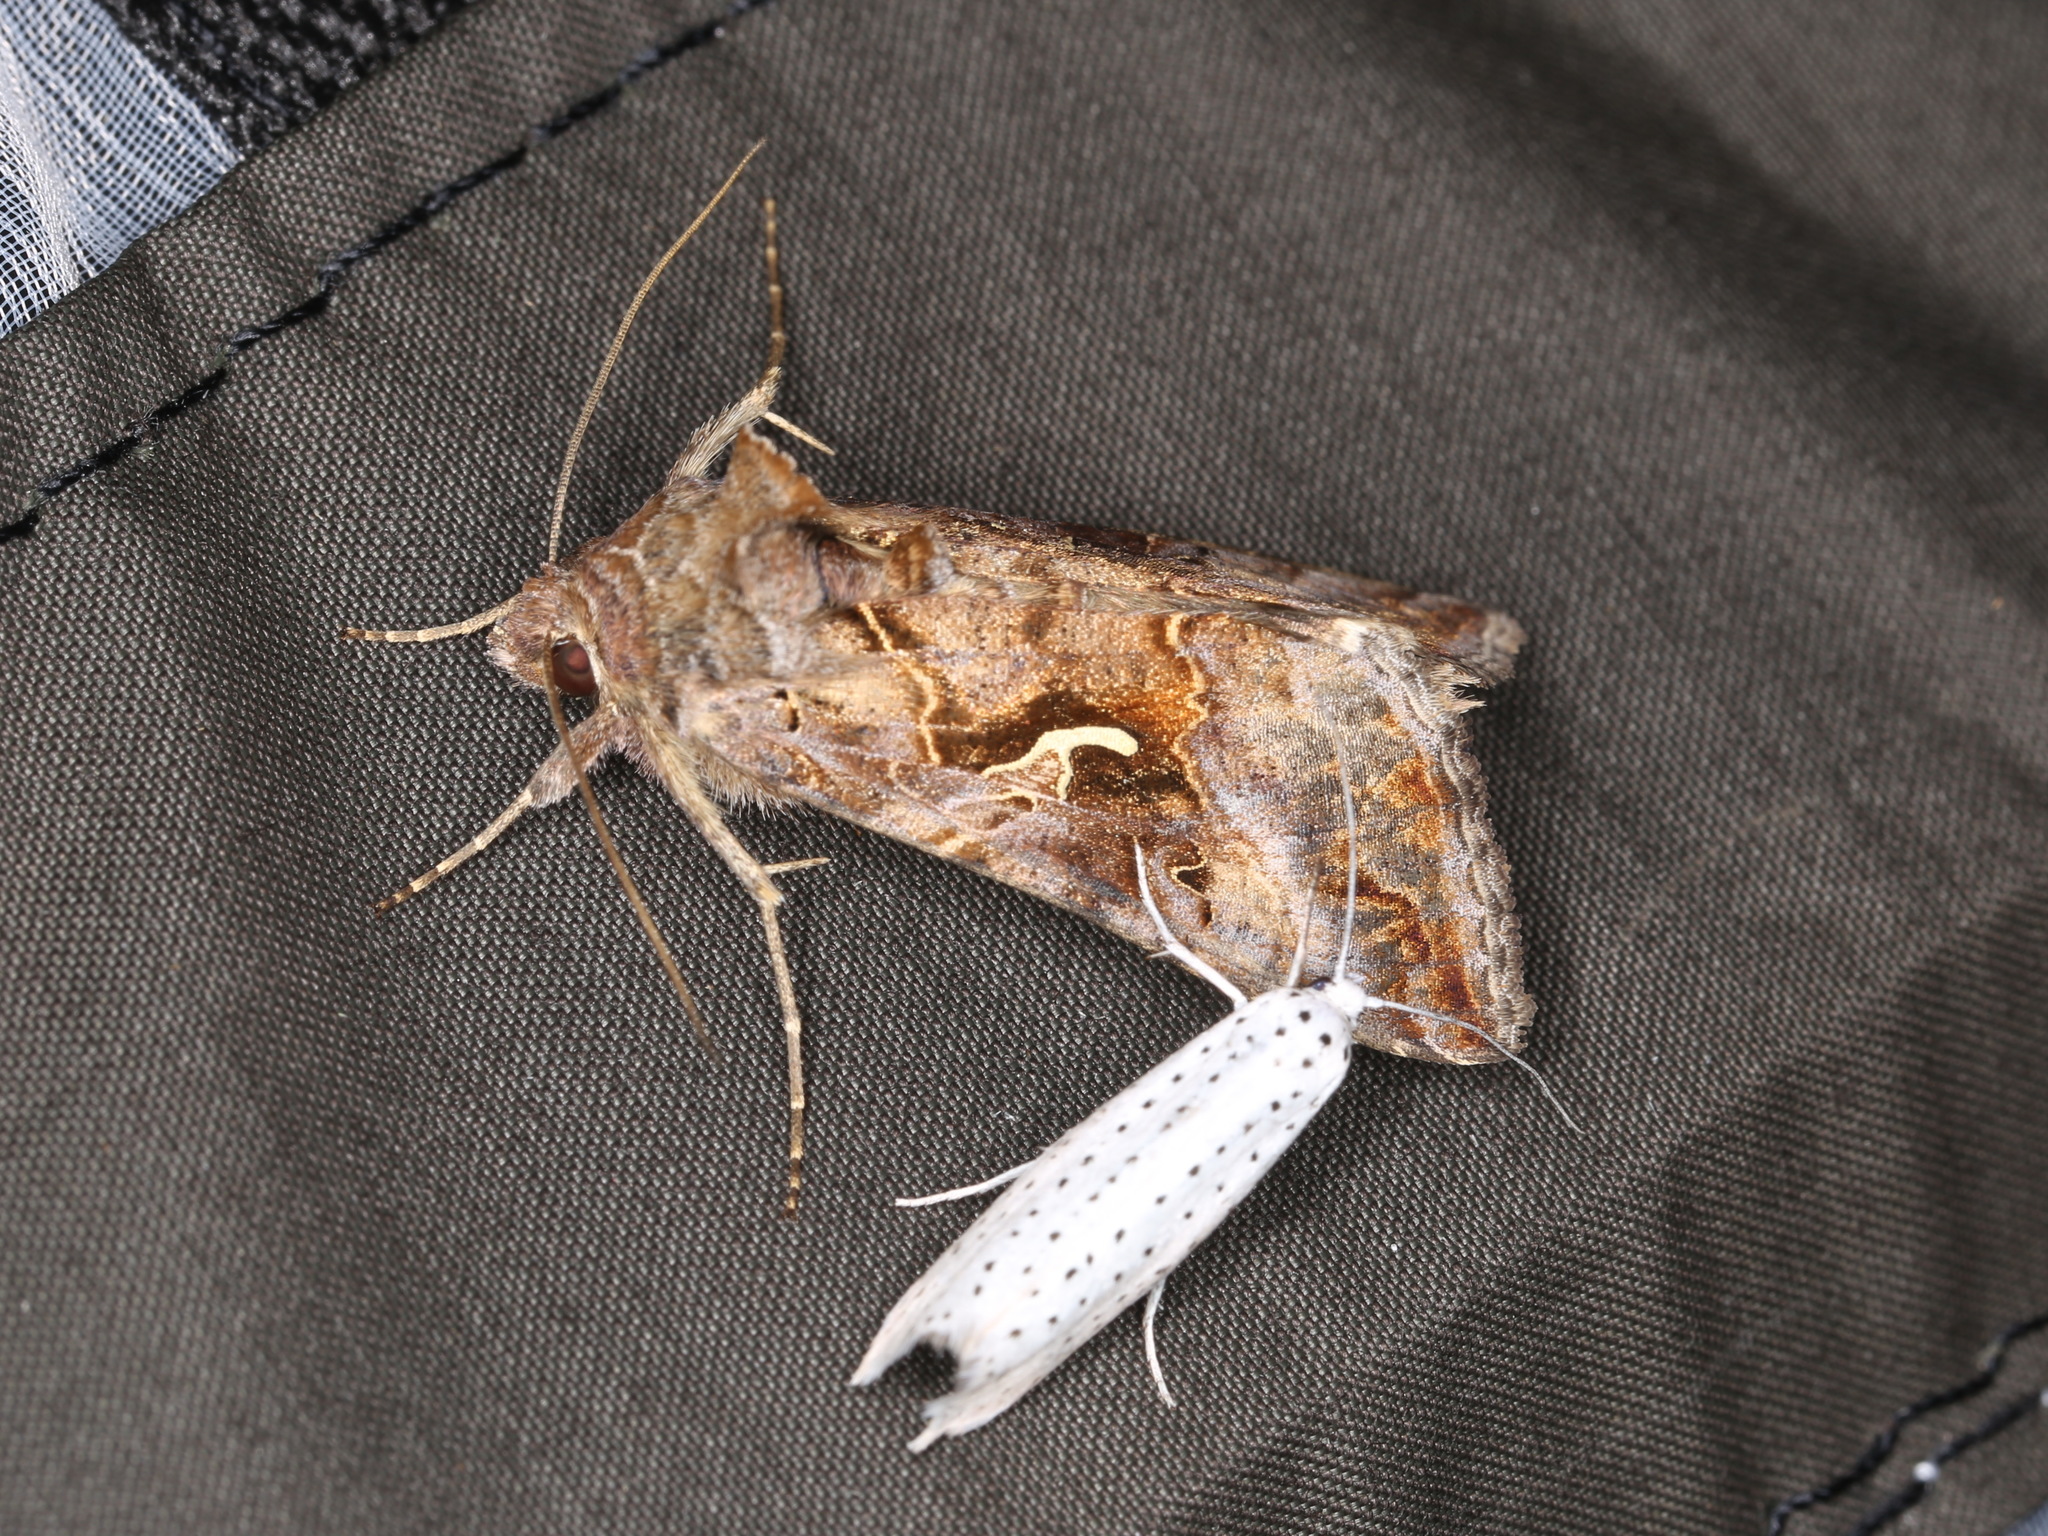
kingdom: Animalia
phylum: Arthropoda
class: Insecta
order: Lepidoptera
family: Noctuidae
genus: Autographa
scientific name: Autographa gamma
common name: Silver y
